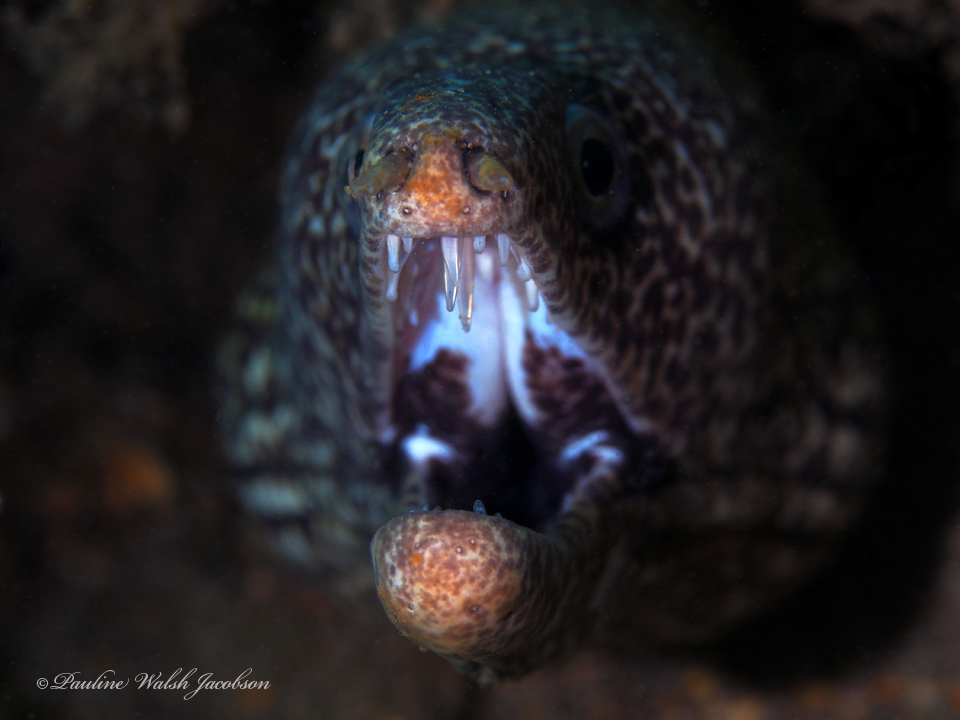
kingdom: Animalia
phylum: Chordata
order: Anguilliformes
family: Muraenidae
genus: Gymnothorax
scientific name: Gymnothorax moringa
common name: Spotted moray
